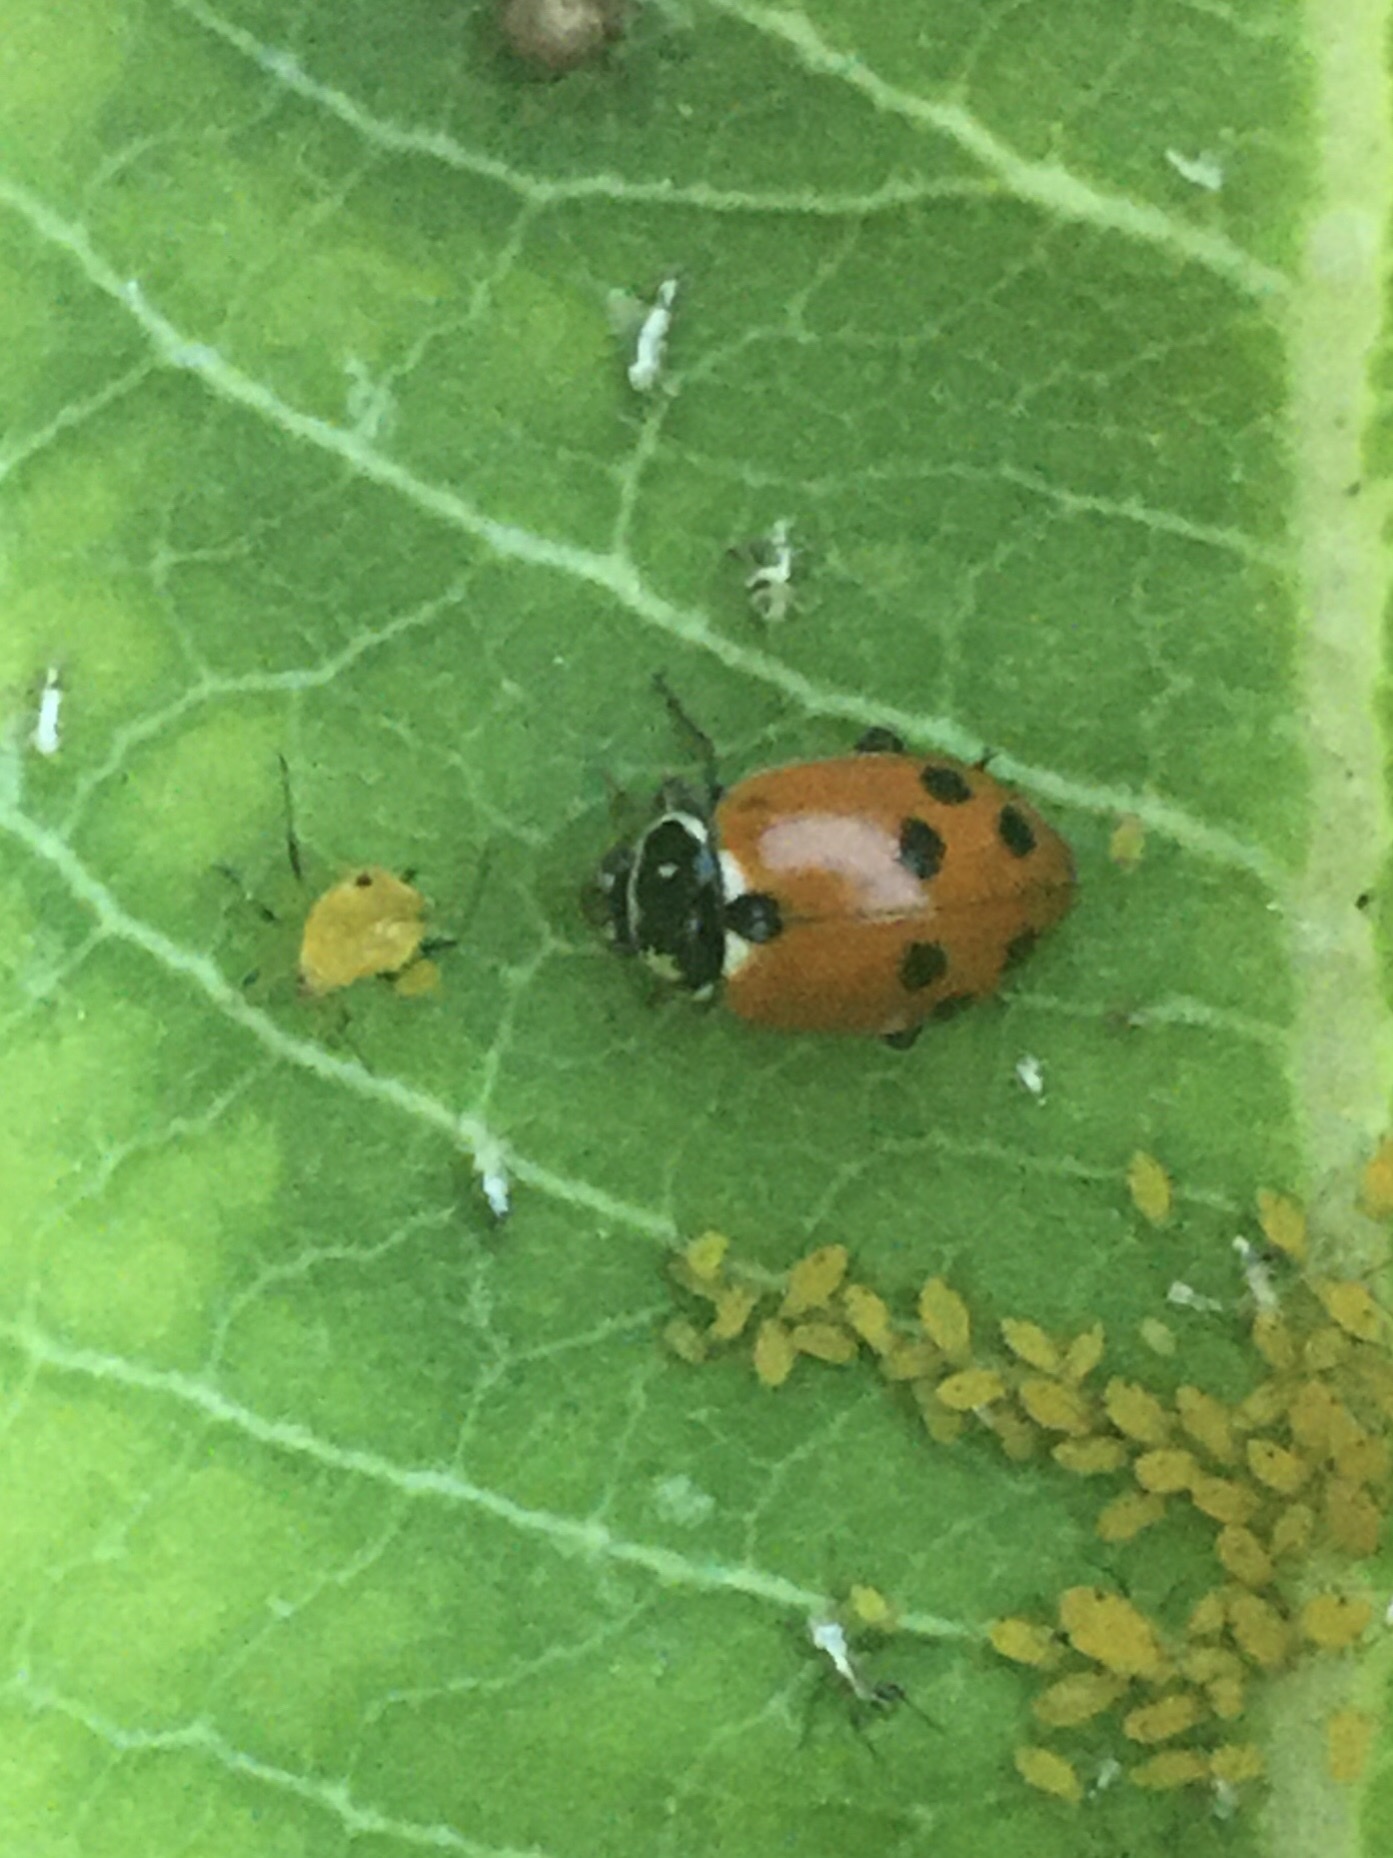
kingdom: Animalia
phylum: Arthropoda
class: Insecta
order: Coleoptera
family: Coccinellidae
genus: Hippodamia
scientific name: Hippodamia variegata
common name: Ladybird beetle
